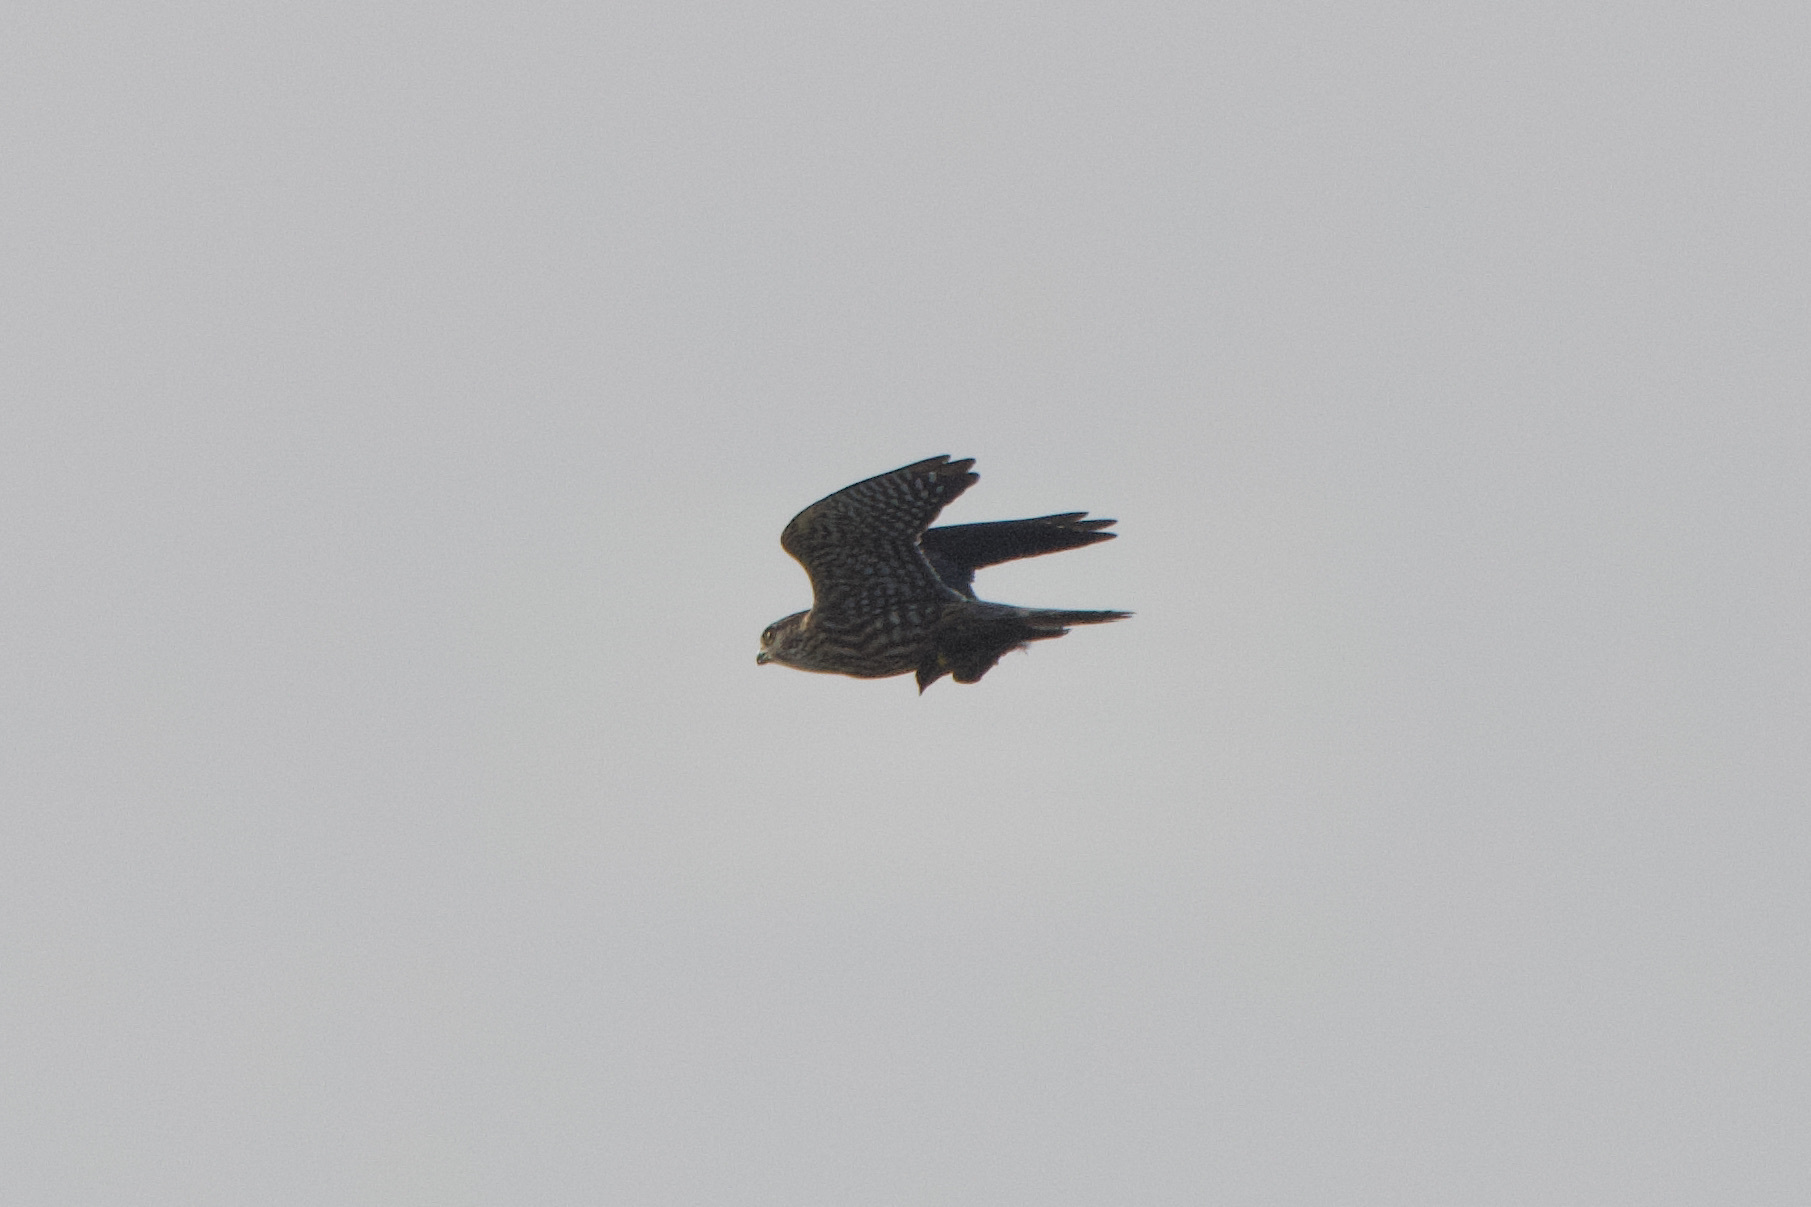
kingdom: Animalia
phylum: Chordata
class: Aves
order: Falconiformes
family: Falconidae
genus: Falco
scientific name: Falco columbarius
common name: Merlin
